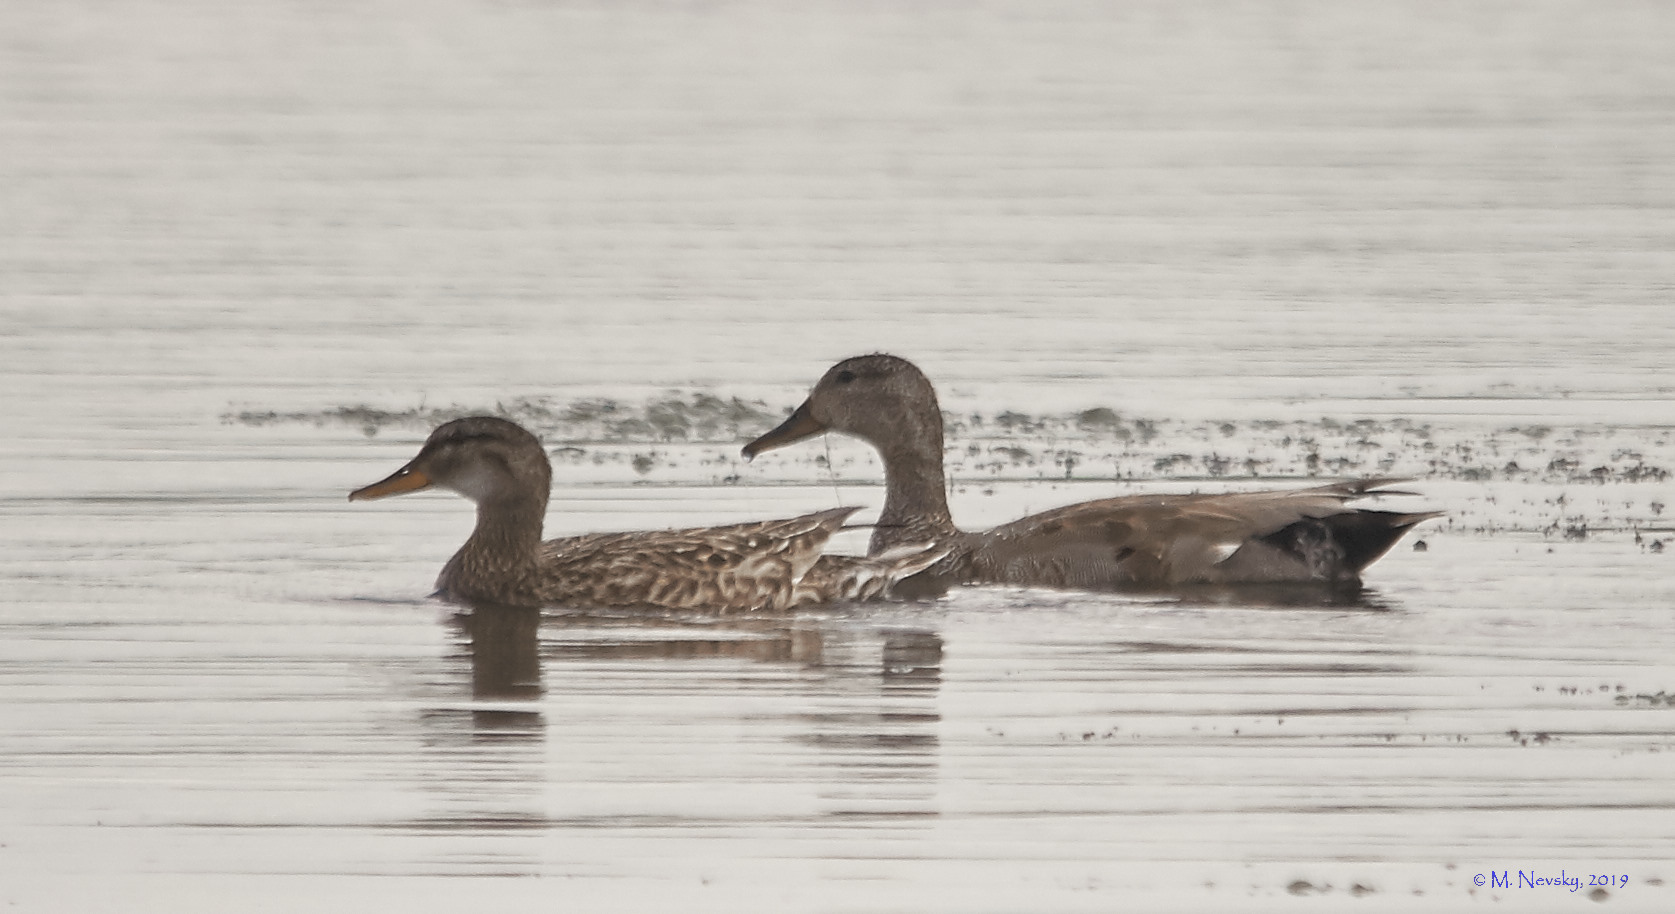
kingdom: Animalia
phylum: Chordata
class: Aves
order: Anseriformes
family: Anatidae
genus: Mareca
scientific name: Mareca strepera
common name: Gadwall
